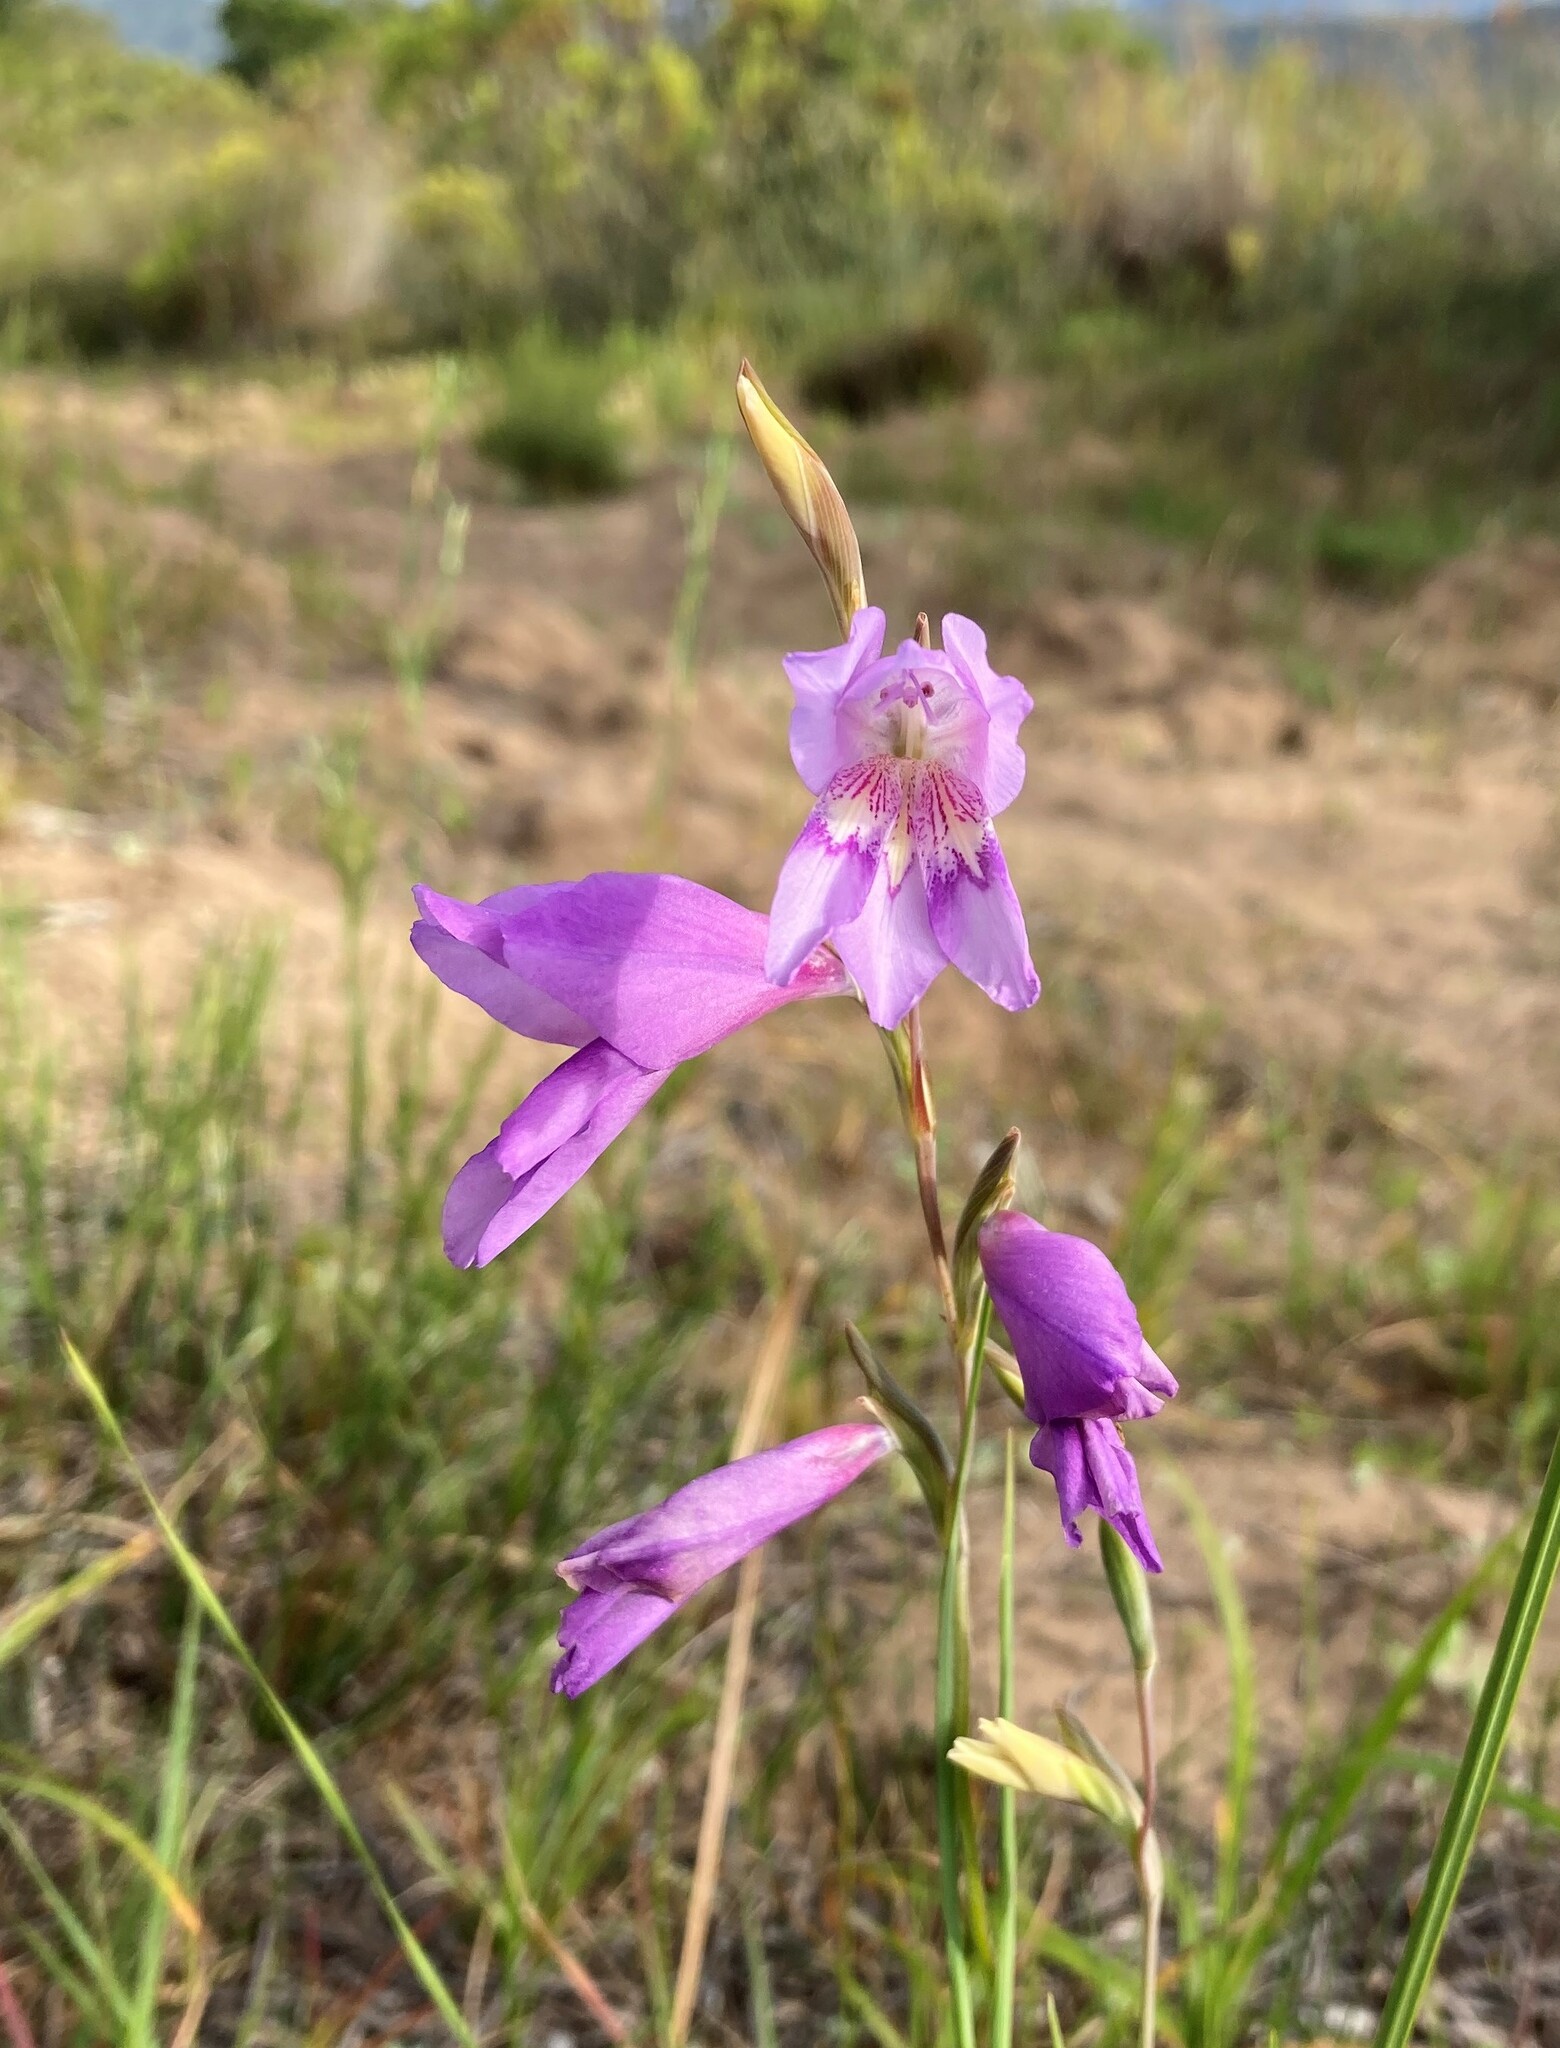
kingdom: Plantae
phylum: Tracheophyta
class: Liliopsida
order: Asparagales
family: Iridaceae
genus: Gladiolus
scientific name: Gladiolus rogersii
